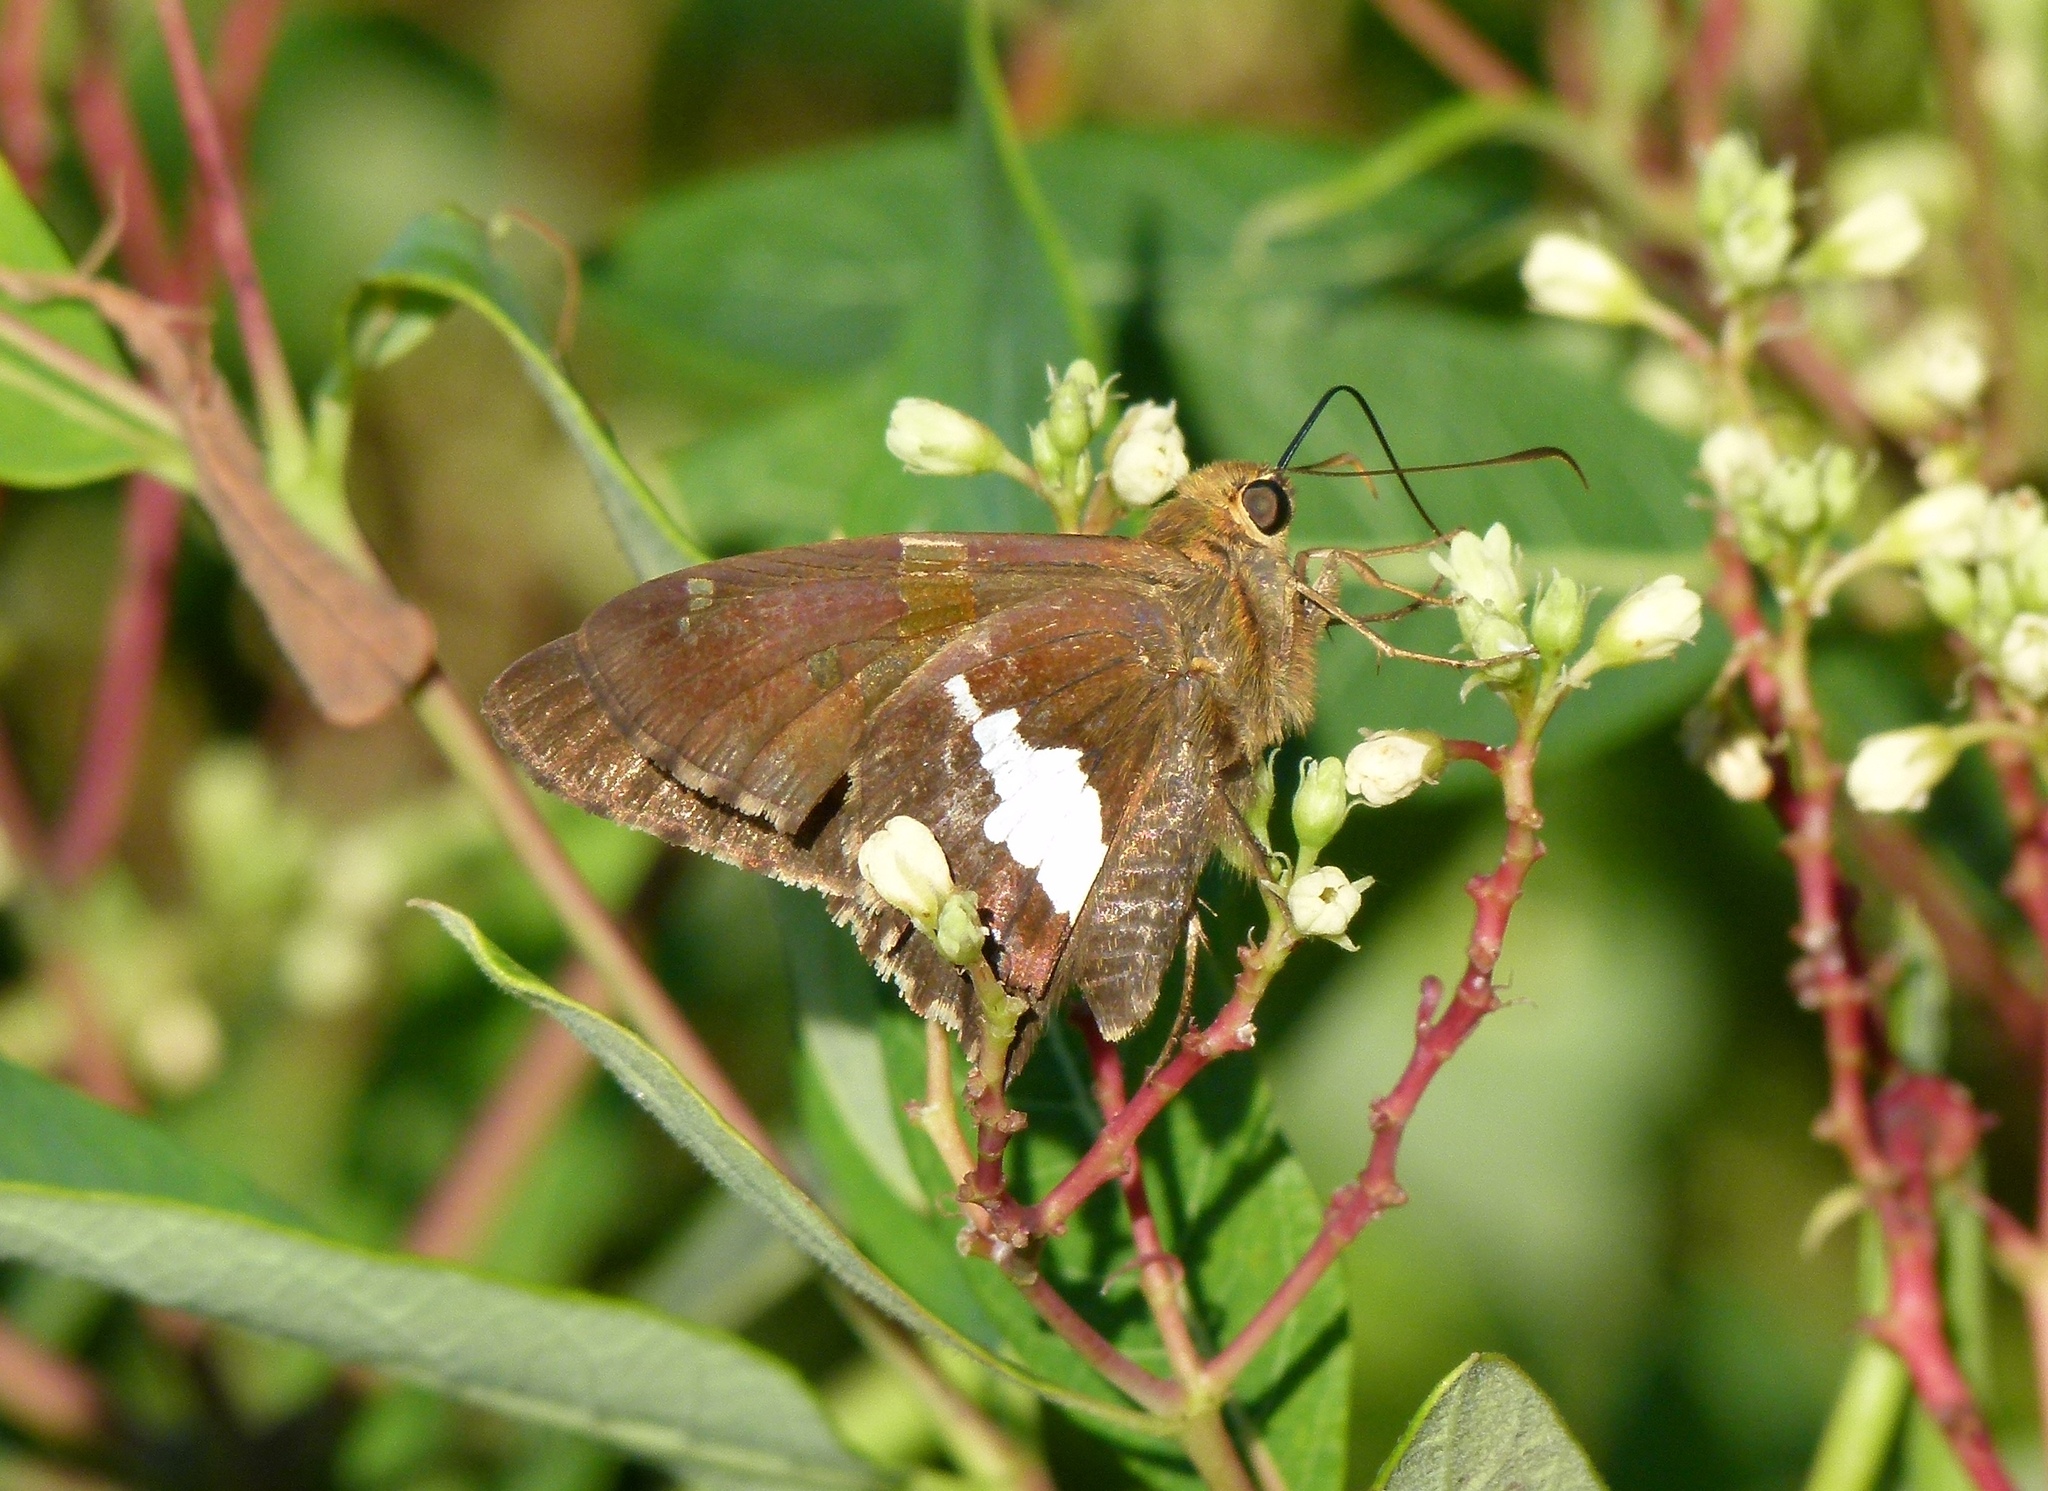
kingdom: Animalia
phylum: Arthropoda
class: Insecta
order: Lepidoptera
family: Hesperiidae
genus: Epargyreus
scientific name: Epargyreus clarus
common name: Silver-spotted skipper
